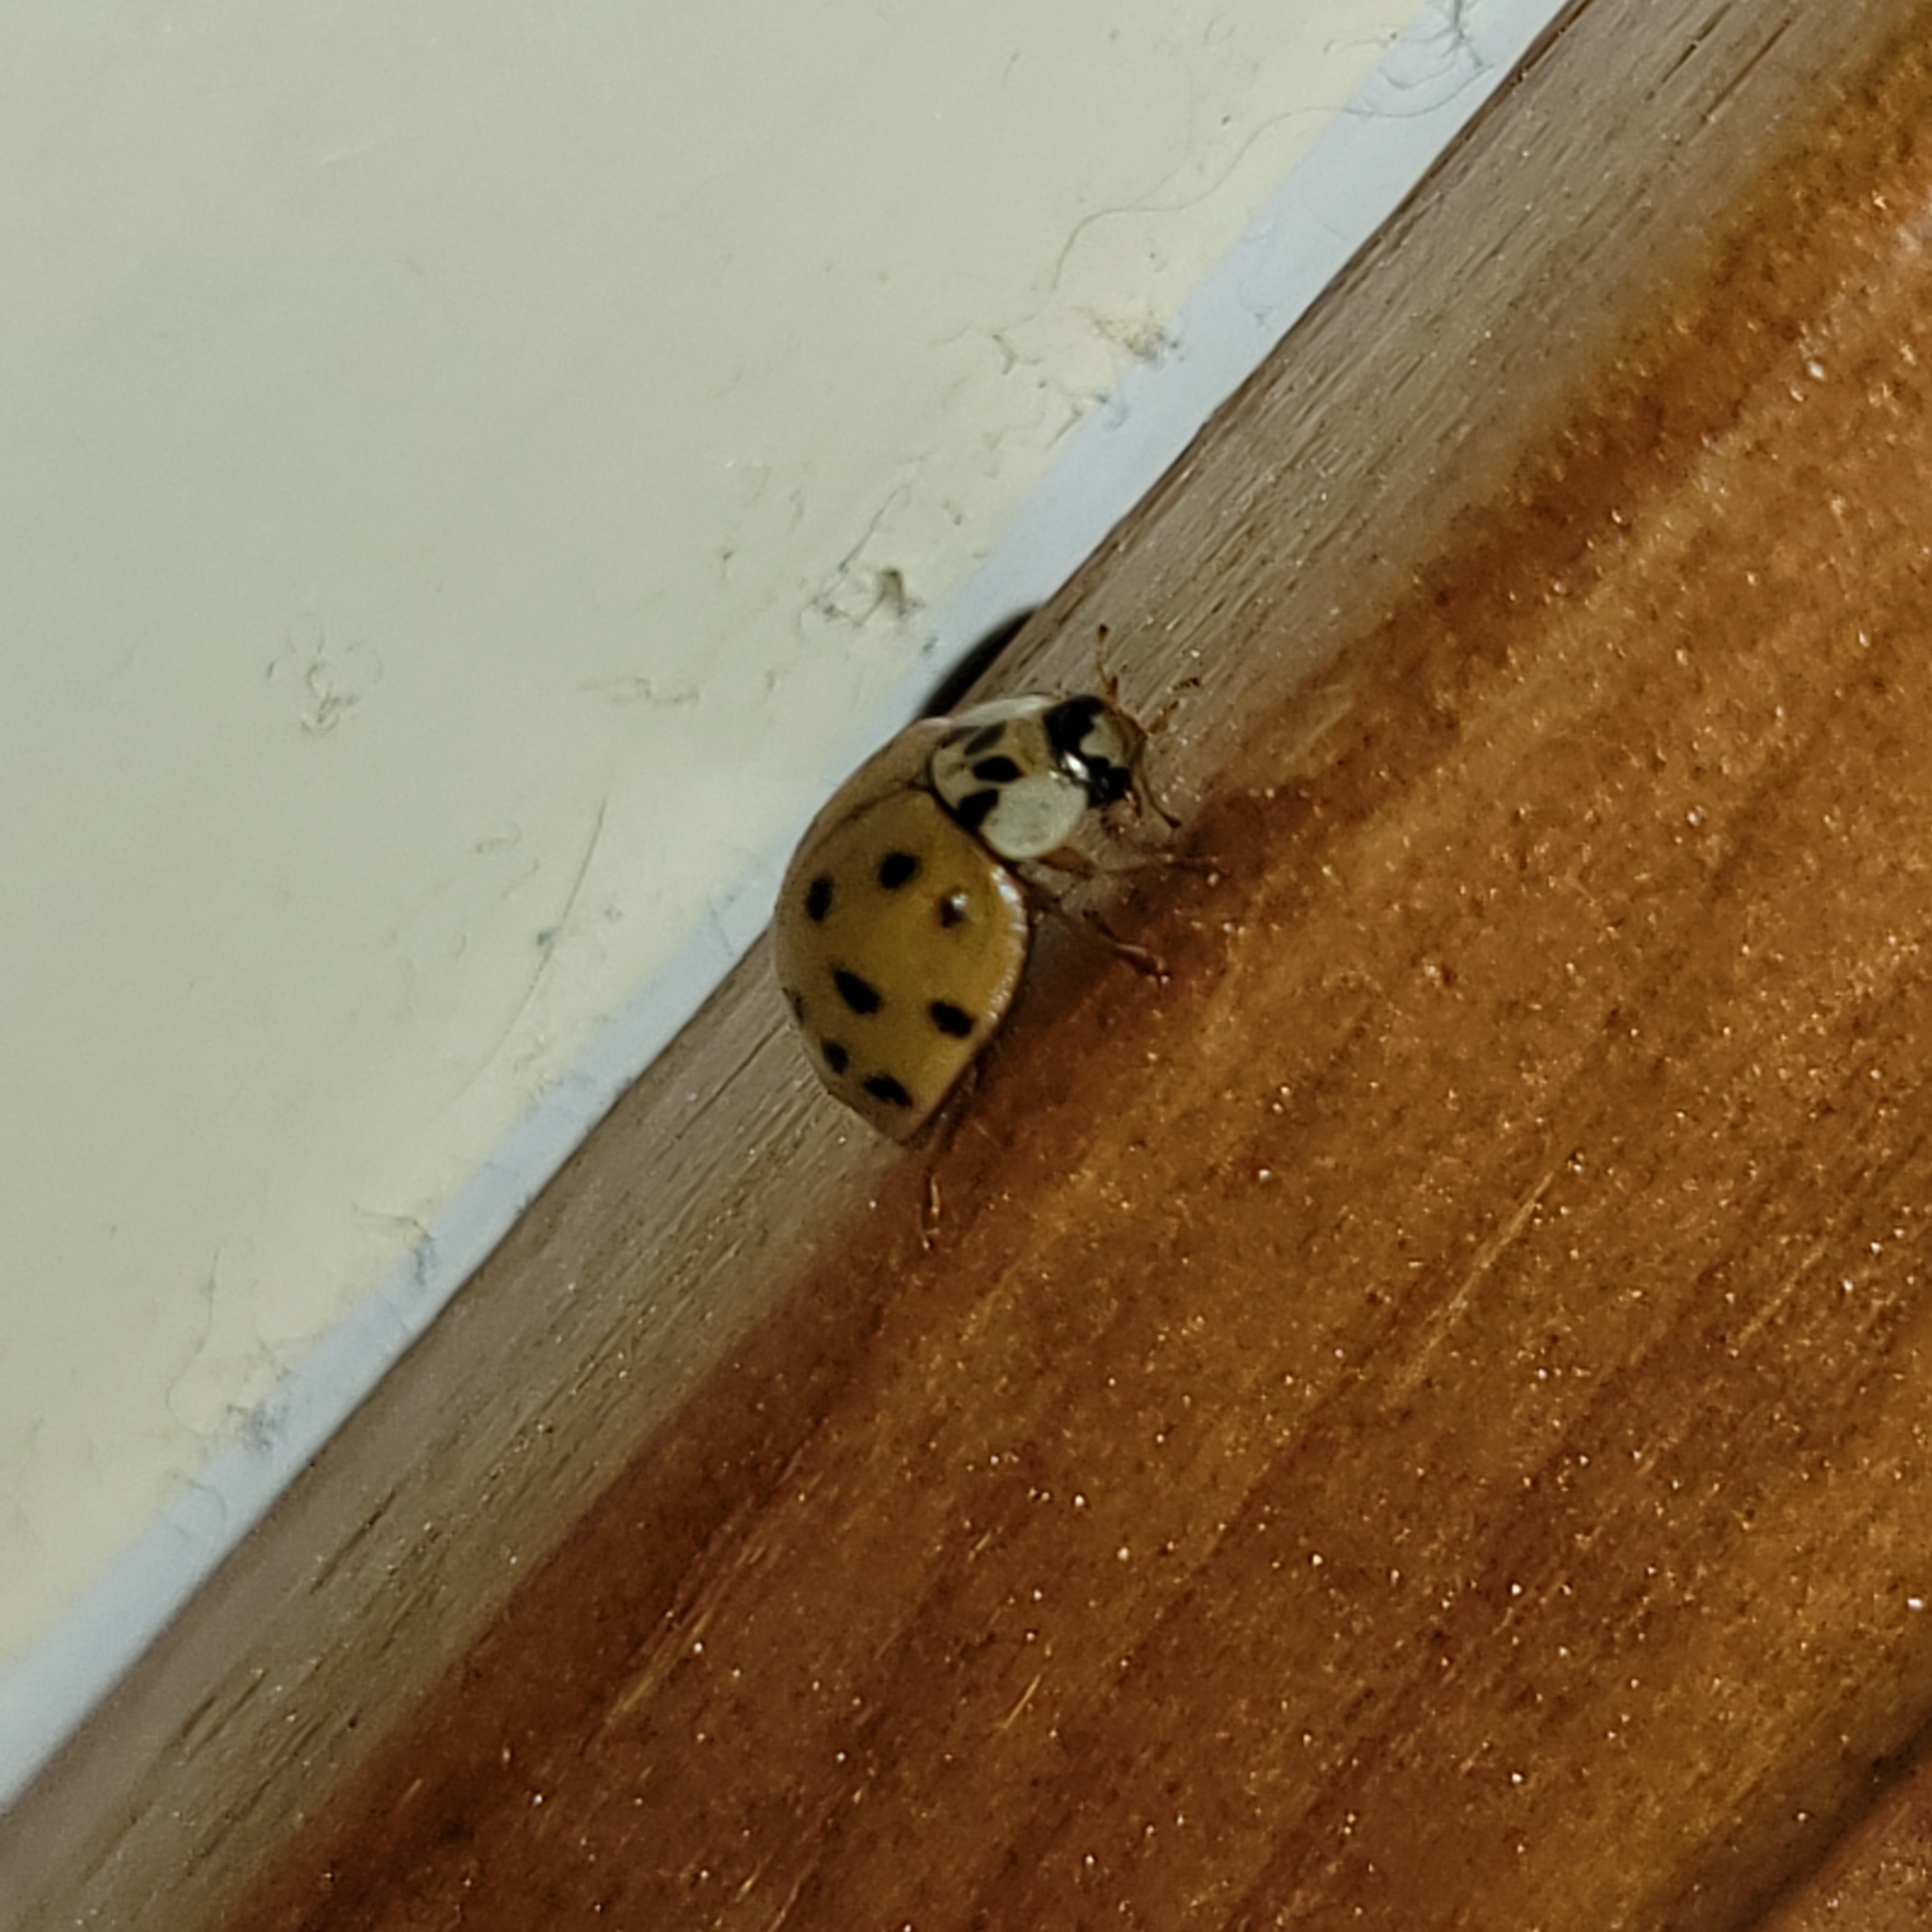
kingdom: Animalia
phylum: Arthropoda
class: Insecta
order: Coleoptera
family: Coccinellidae
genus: Harmonia
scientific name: Harmonia axyridis
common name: Harlequin ladybird
